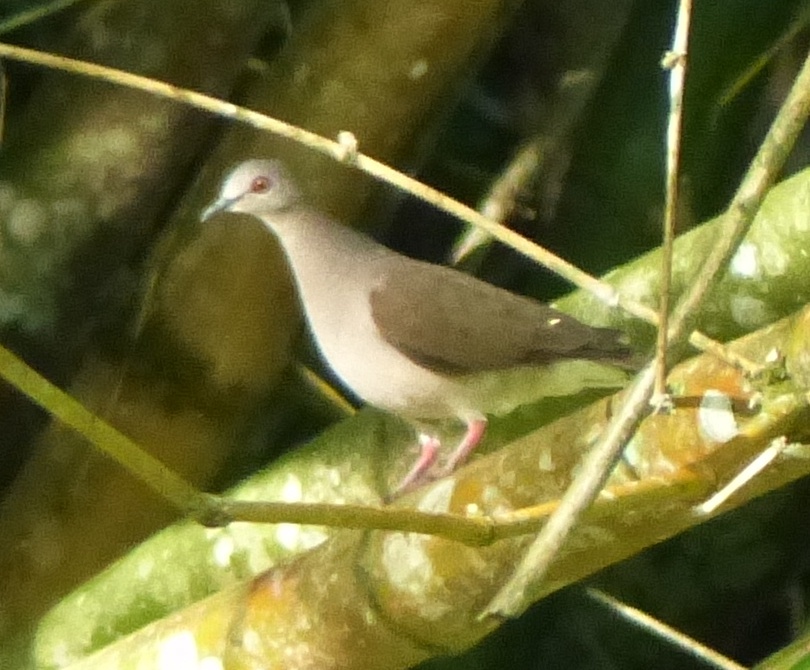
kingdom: Animalia
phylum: Chordata
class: Aves
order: Columbiformes
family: Columbidae
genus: Leptotila
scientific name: Leptotila verreauxi
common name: White-tipped dove
